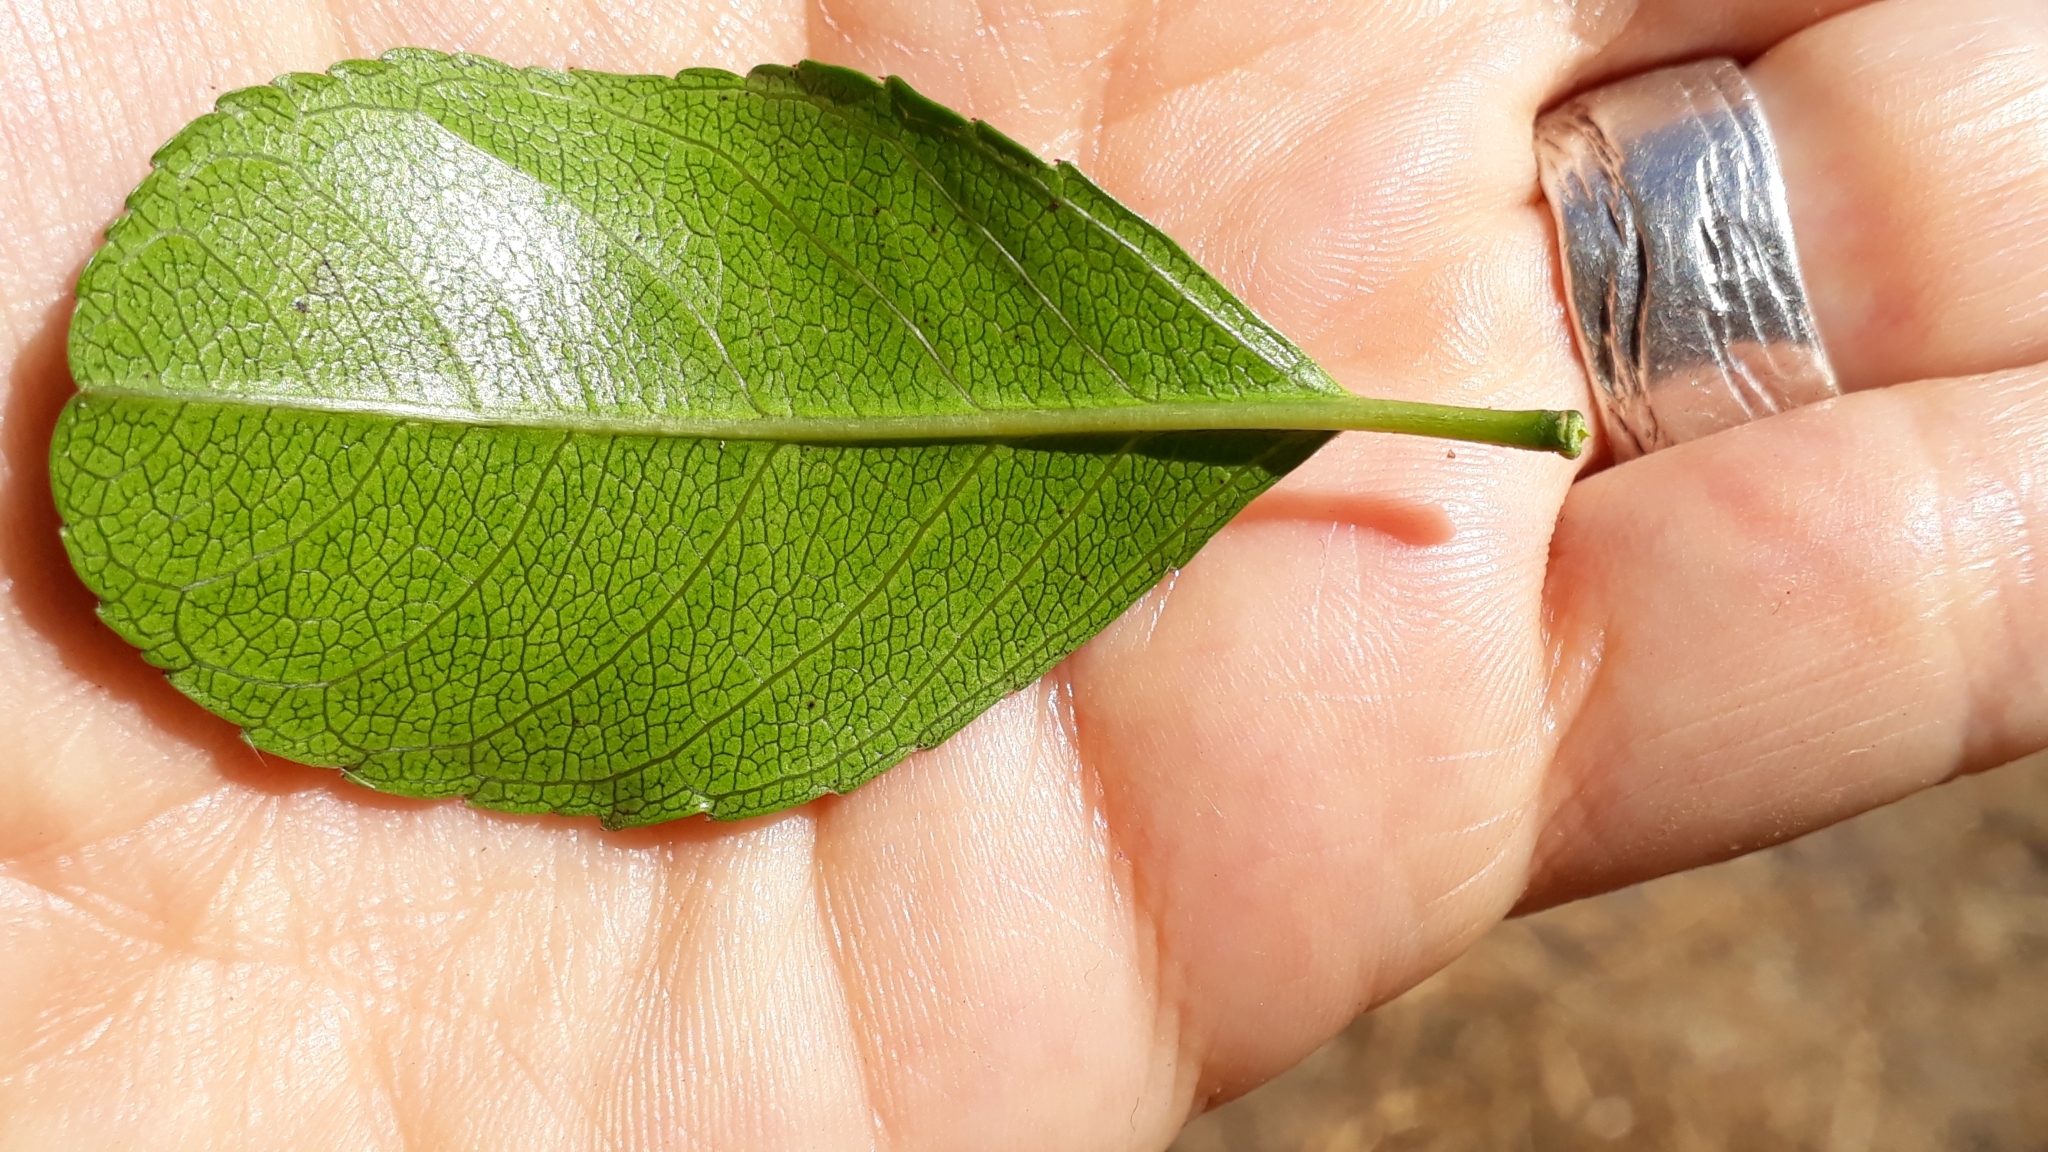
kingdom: Plantae
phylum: Tracheophyta
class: Magnoliopsida
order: Celastrales
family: Celastraceae
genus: Gymnosporia
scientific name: Gymnosporia cassinoides
